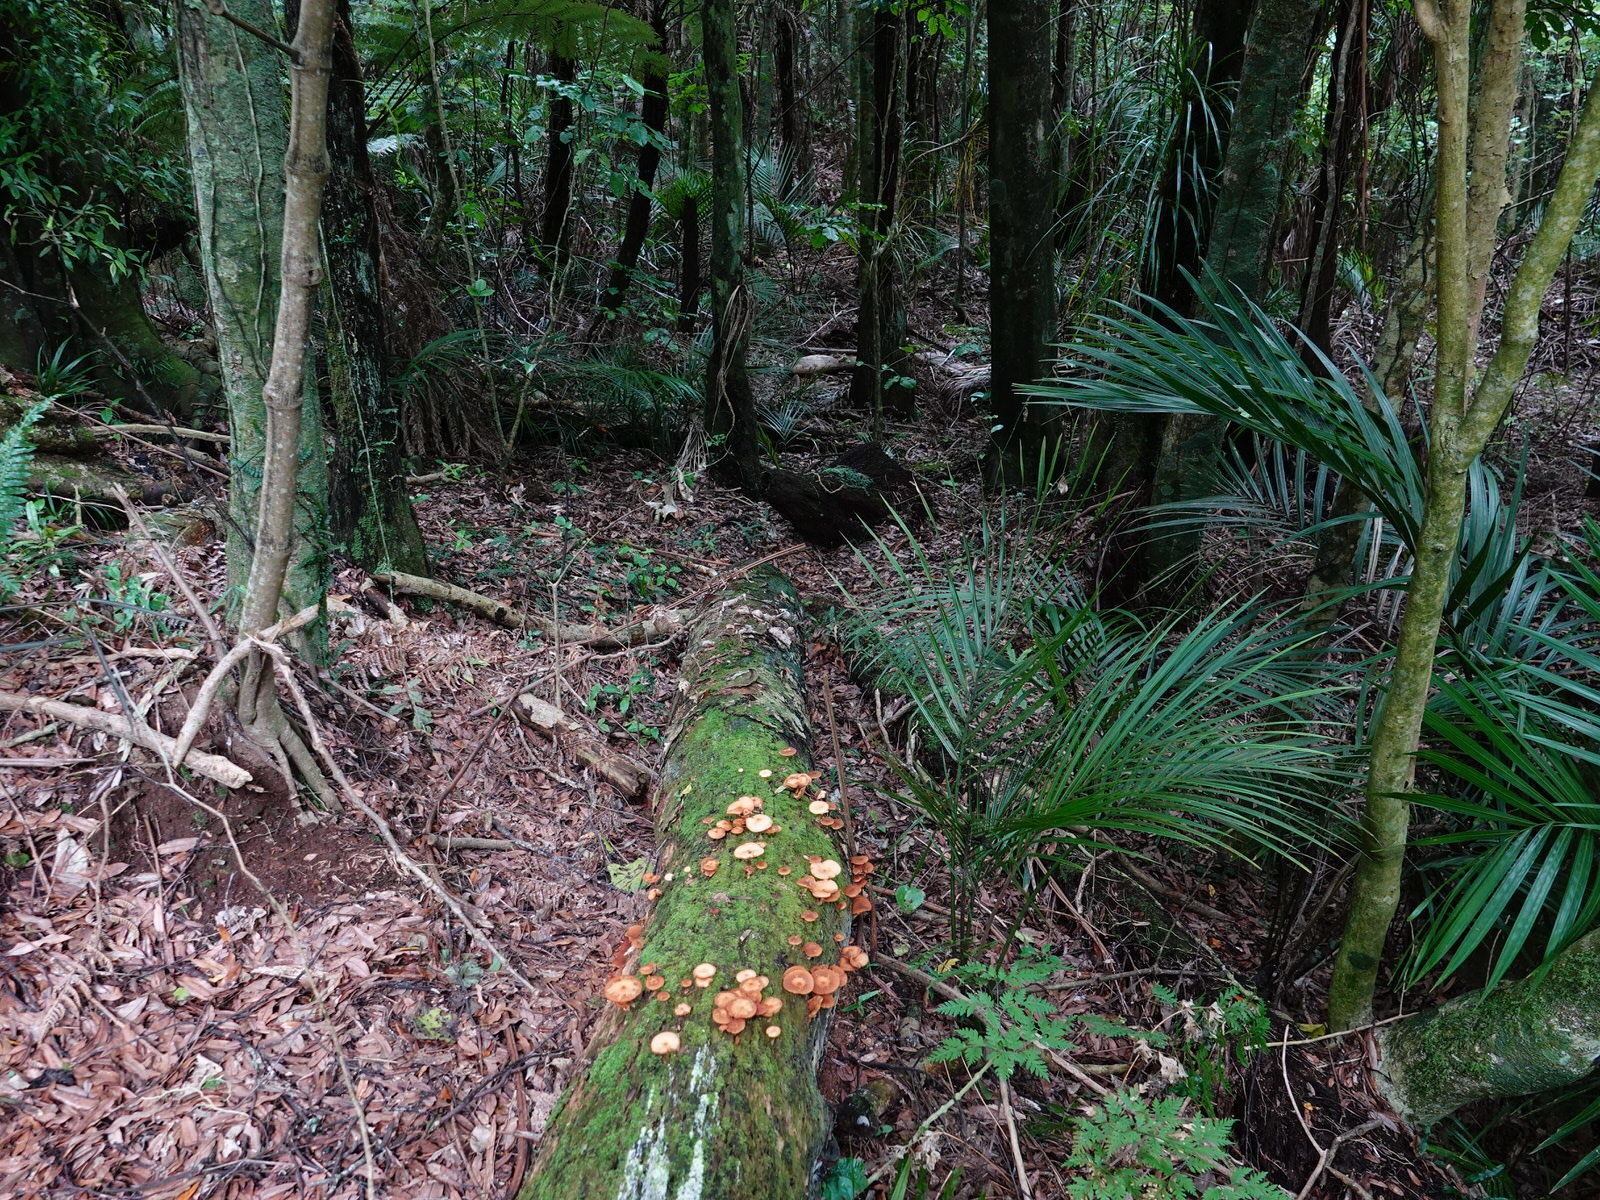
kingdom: Fungi
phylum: Basidiomycota
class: Agaricomycetes
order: Agaricales
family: Hymenogastraceae
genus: Galerina
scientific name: Galerina patagonica
